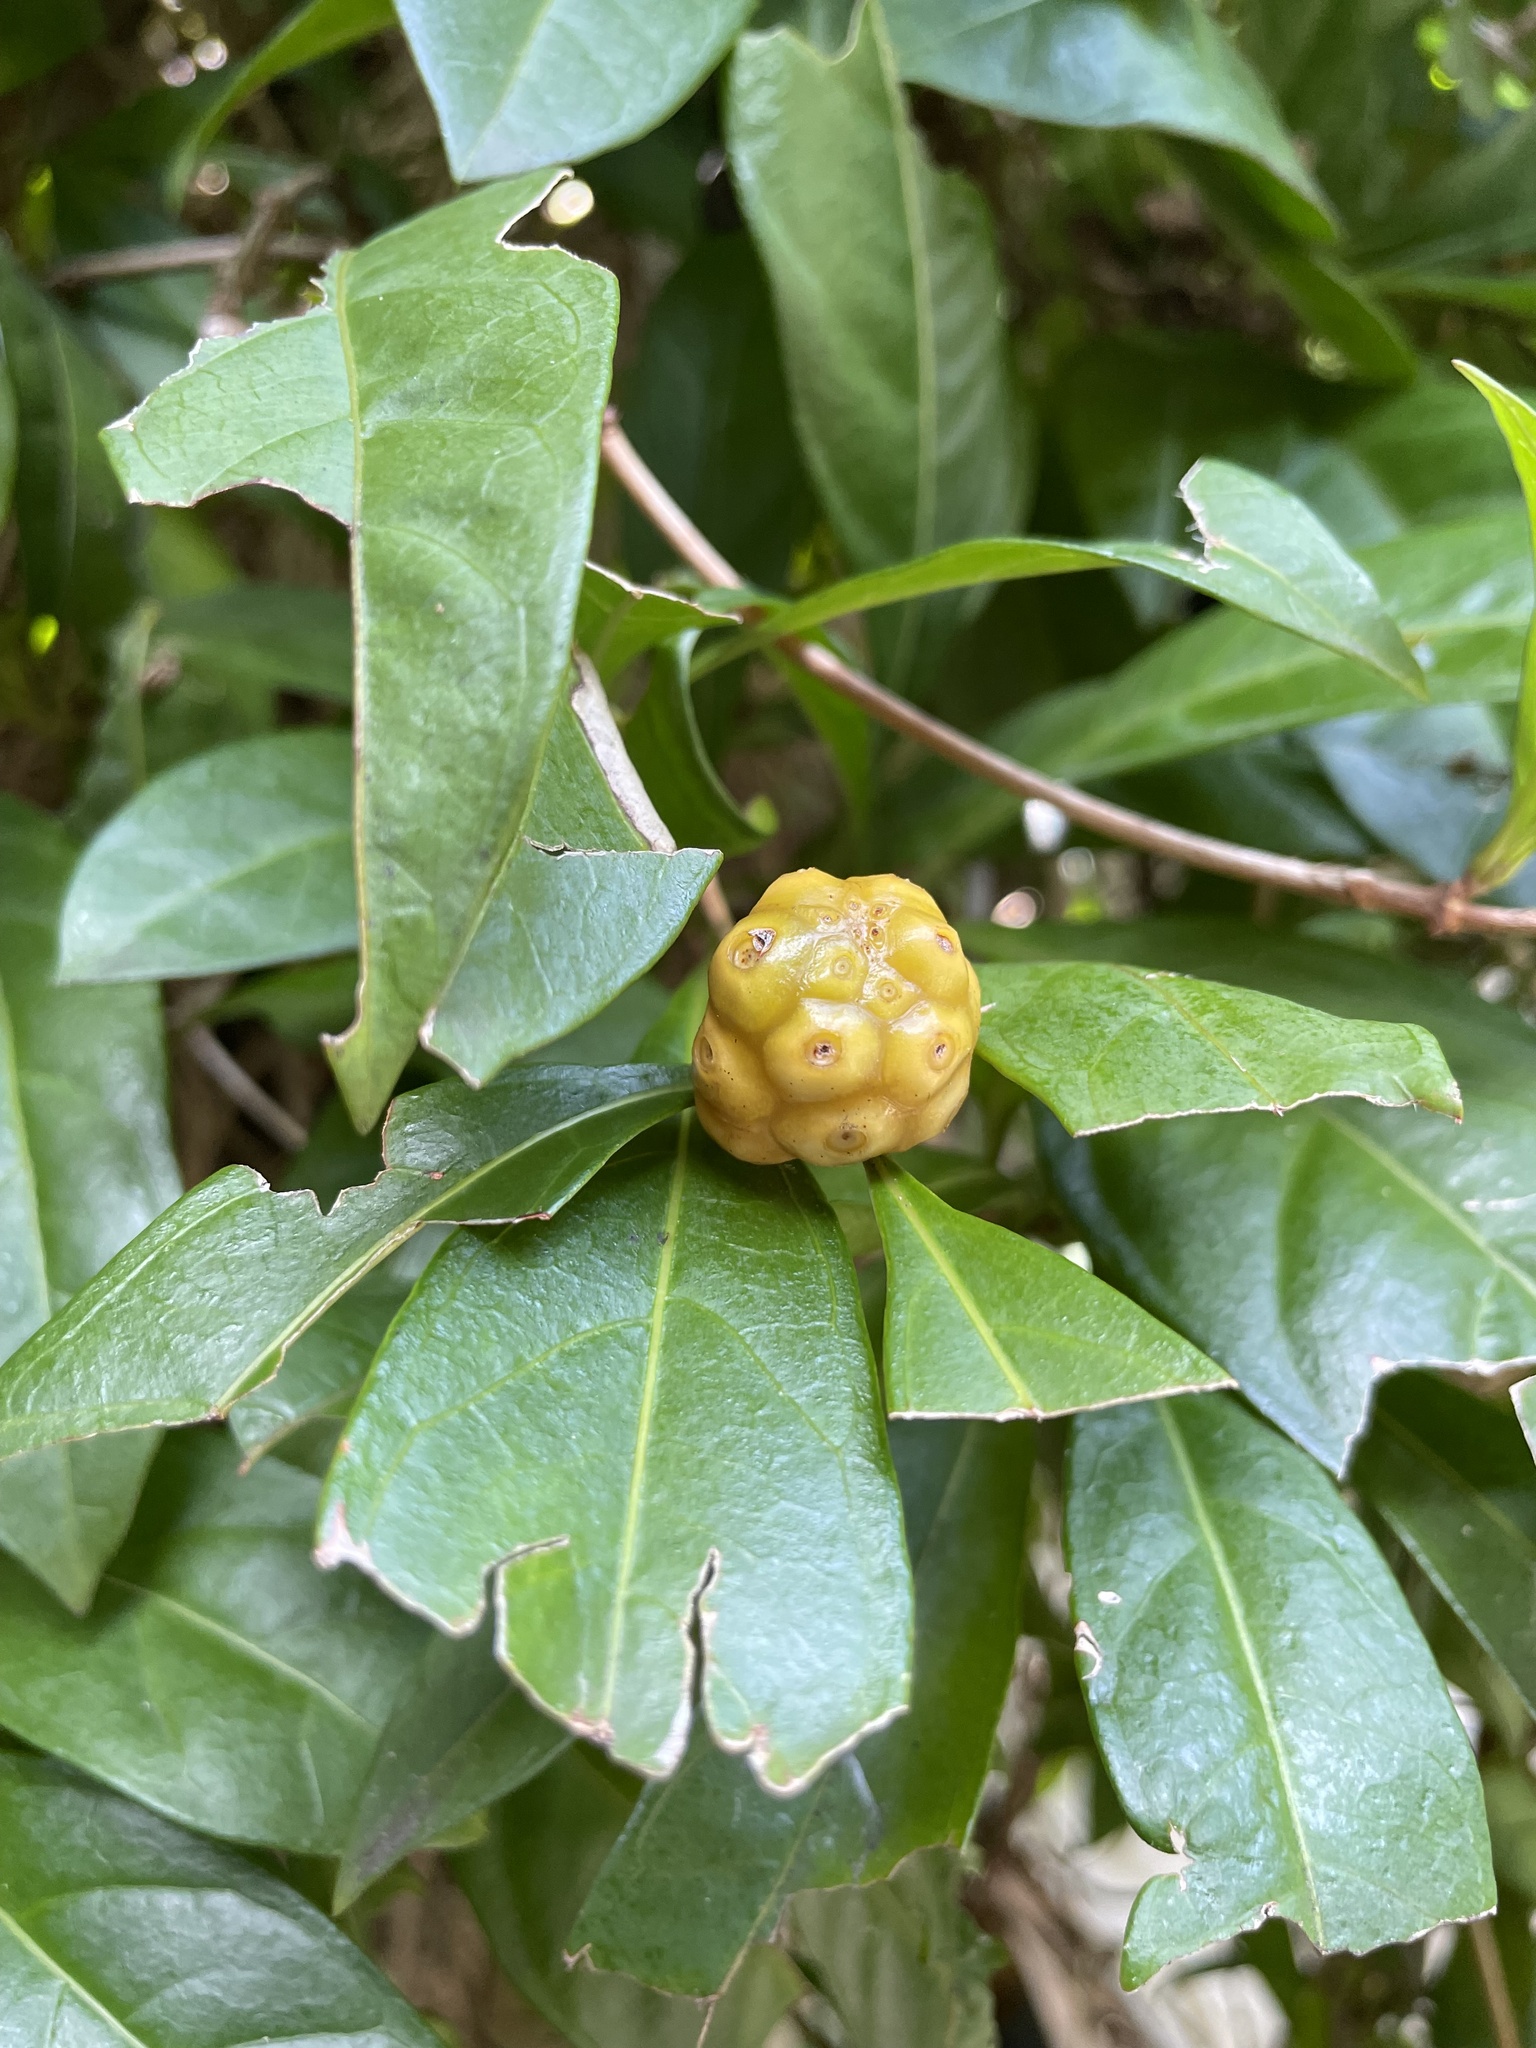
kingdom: Plantae
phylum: Tracheophyta
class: Magnoliopsida
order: Gentianales
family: Rubiaceae
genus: Morinda
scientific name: Morinda royoc
